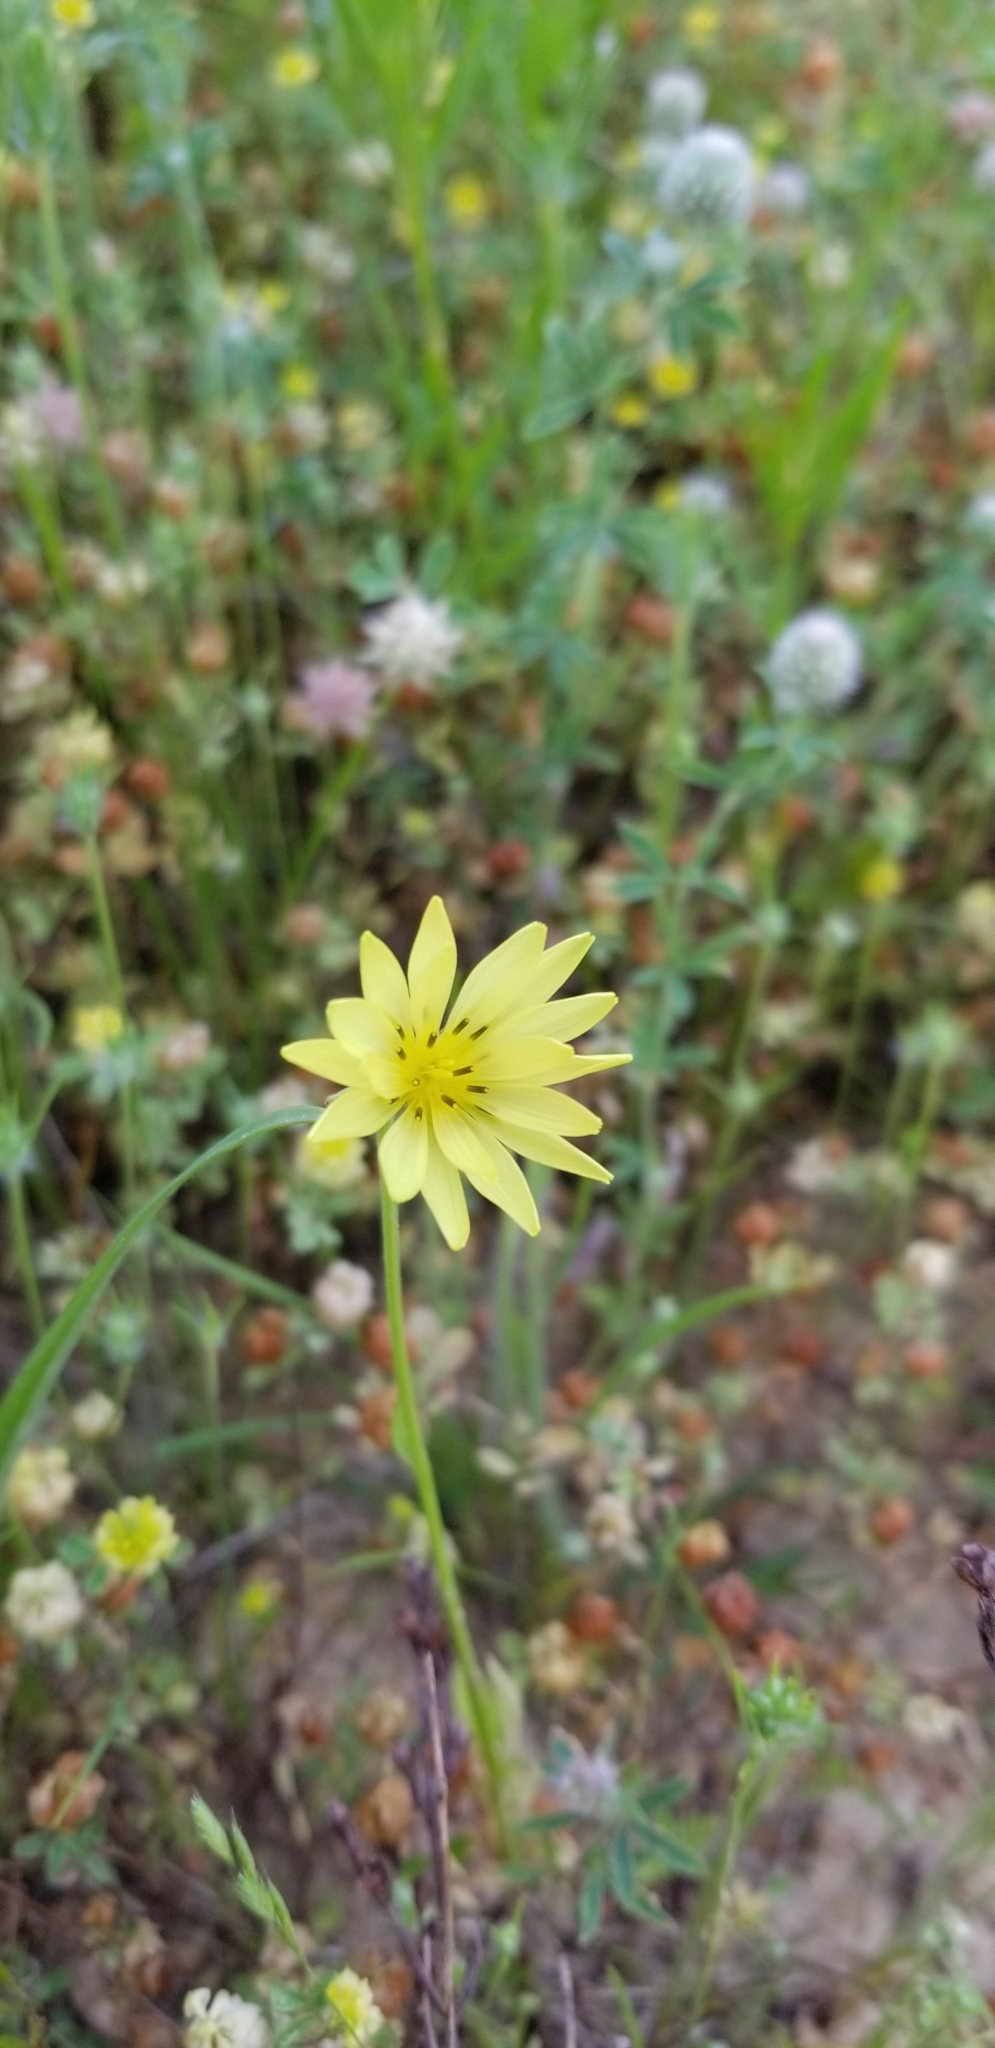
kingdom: Plantae
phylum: Tracheophyta
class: Magnoliopsida
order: Asterales
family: Asteraceae
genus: Pyrrhopappus
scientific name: Pyrrhopappus carolinianus
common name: Carolina desert-chicory
